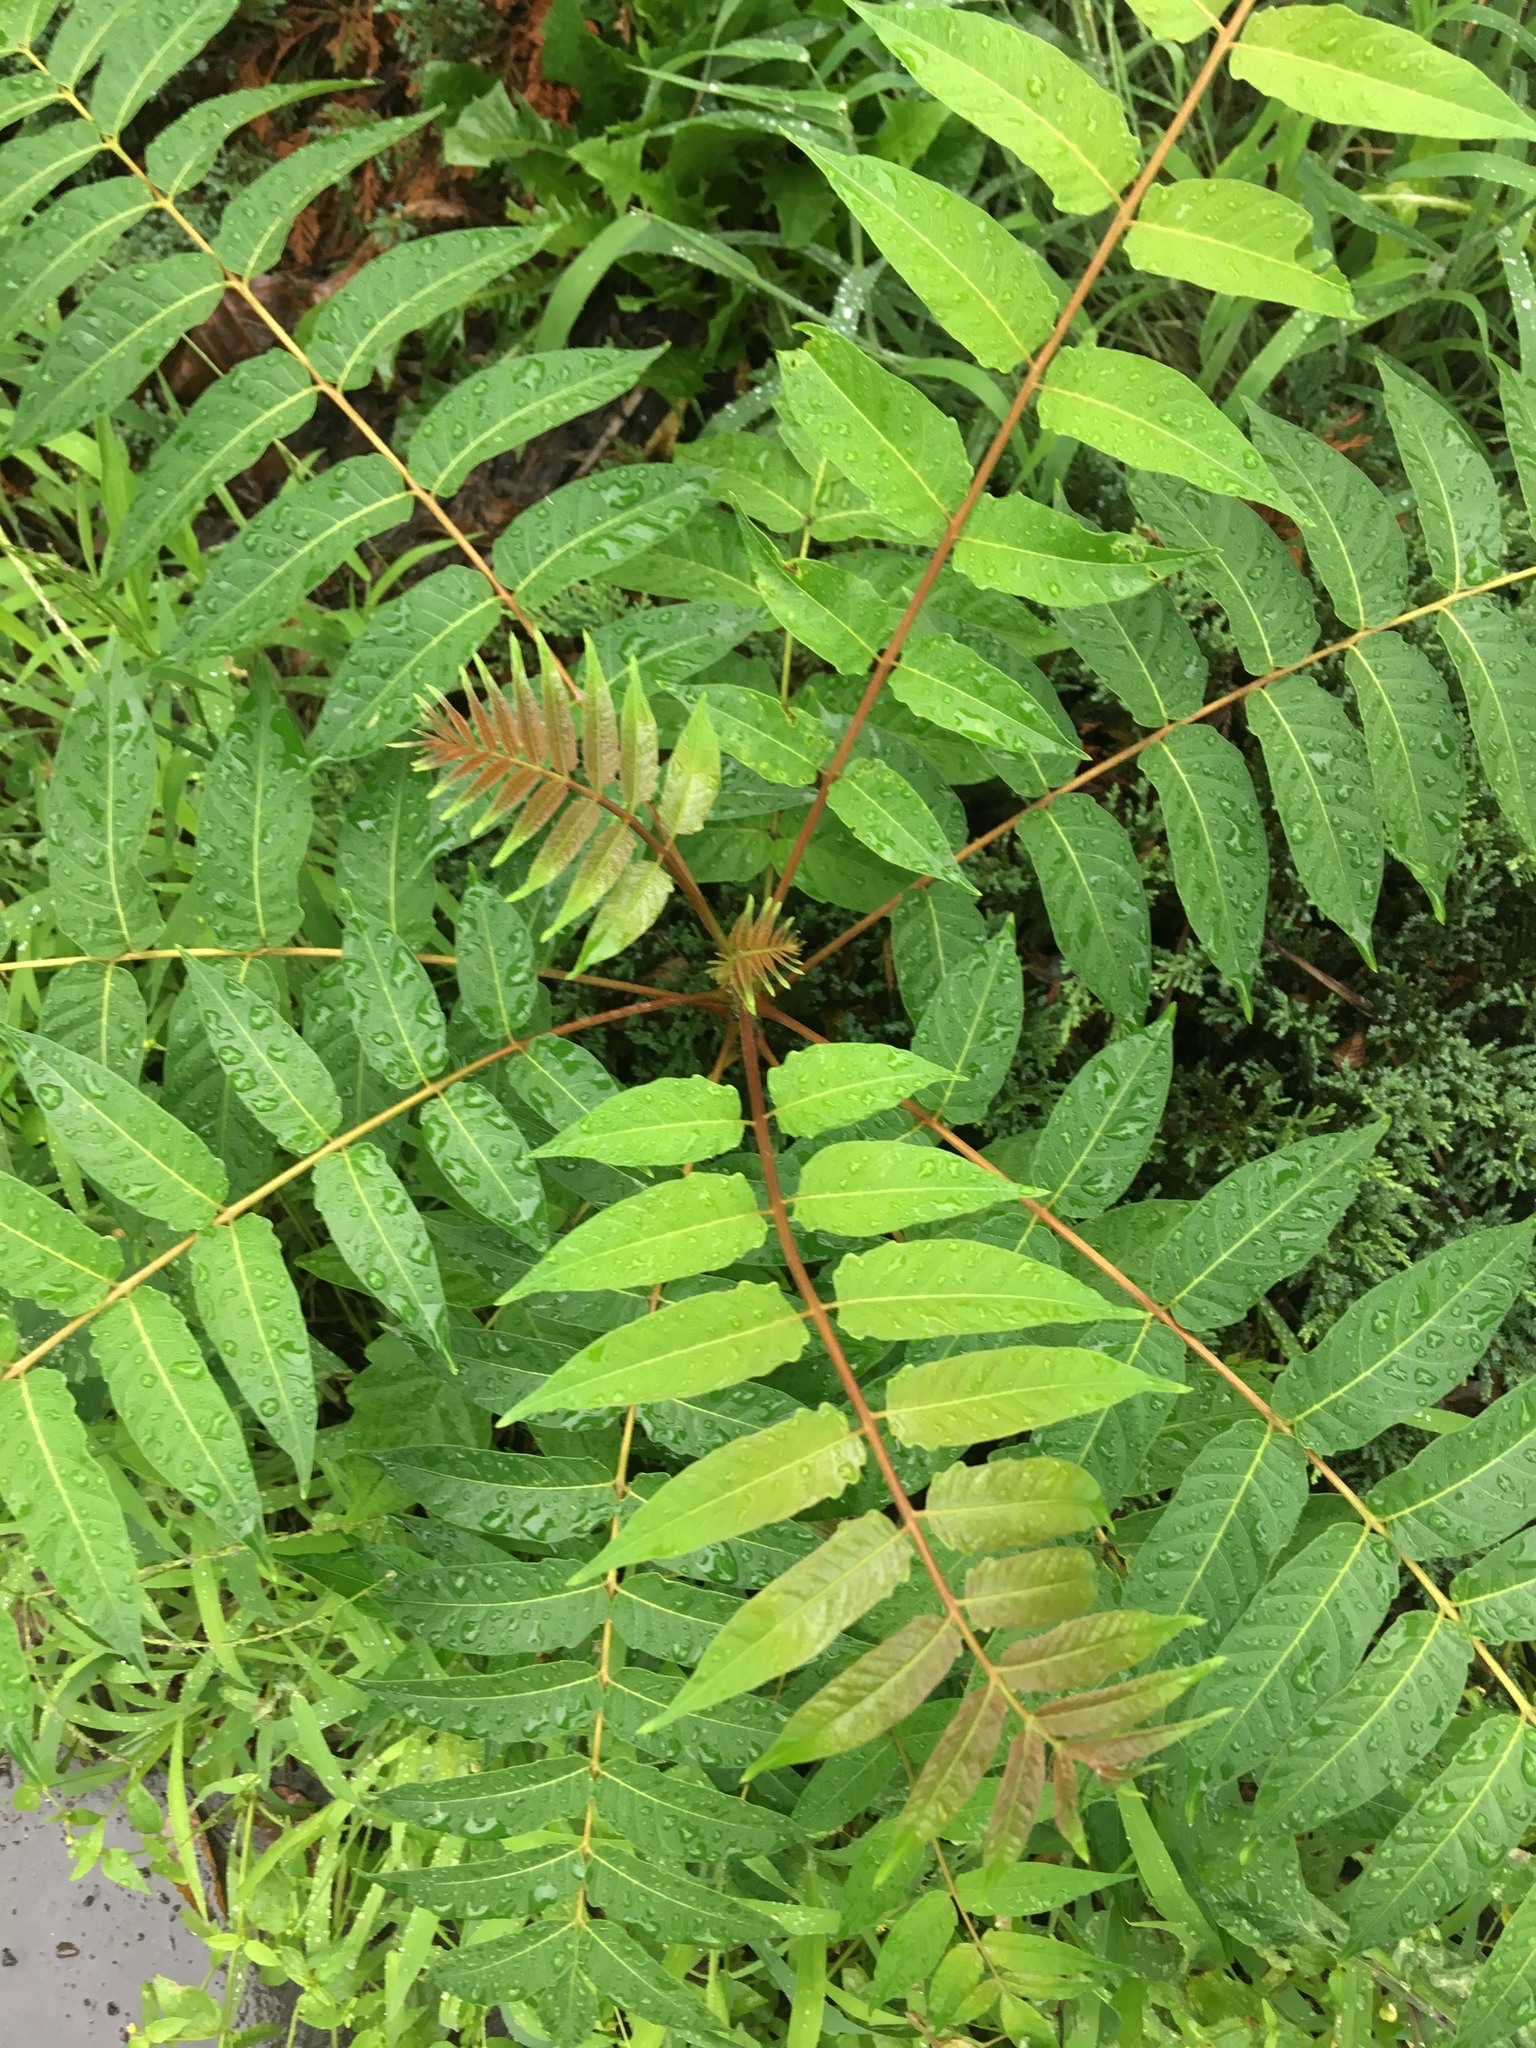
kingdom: Plantae
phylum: Tracheophyta
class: Magnoliopsida
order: Sapindales
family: Simaroubaceae
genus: Ailanthus
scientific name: Ailanthus altissima
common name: Tree-of-heaven
